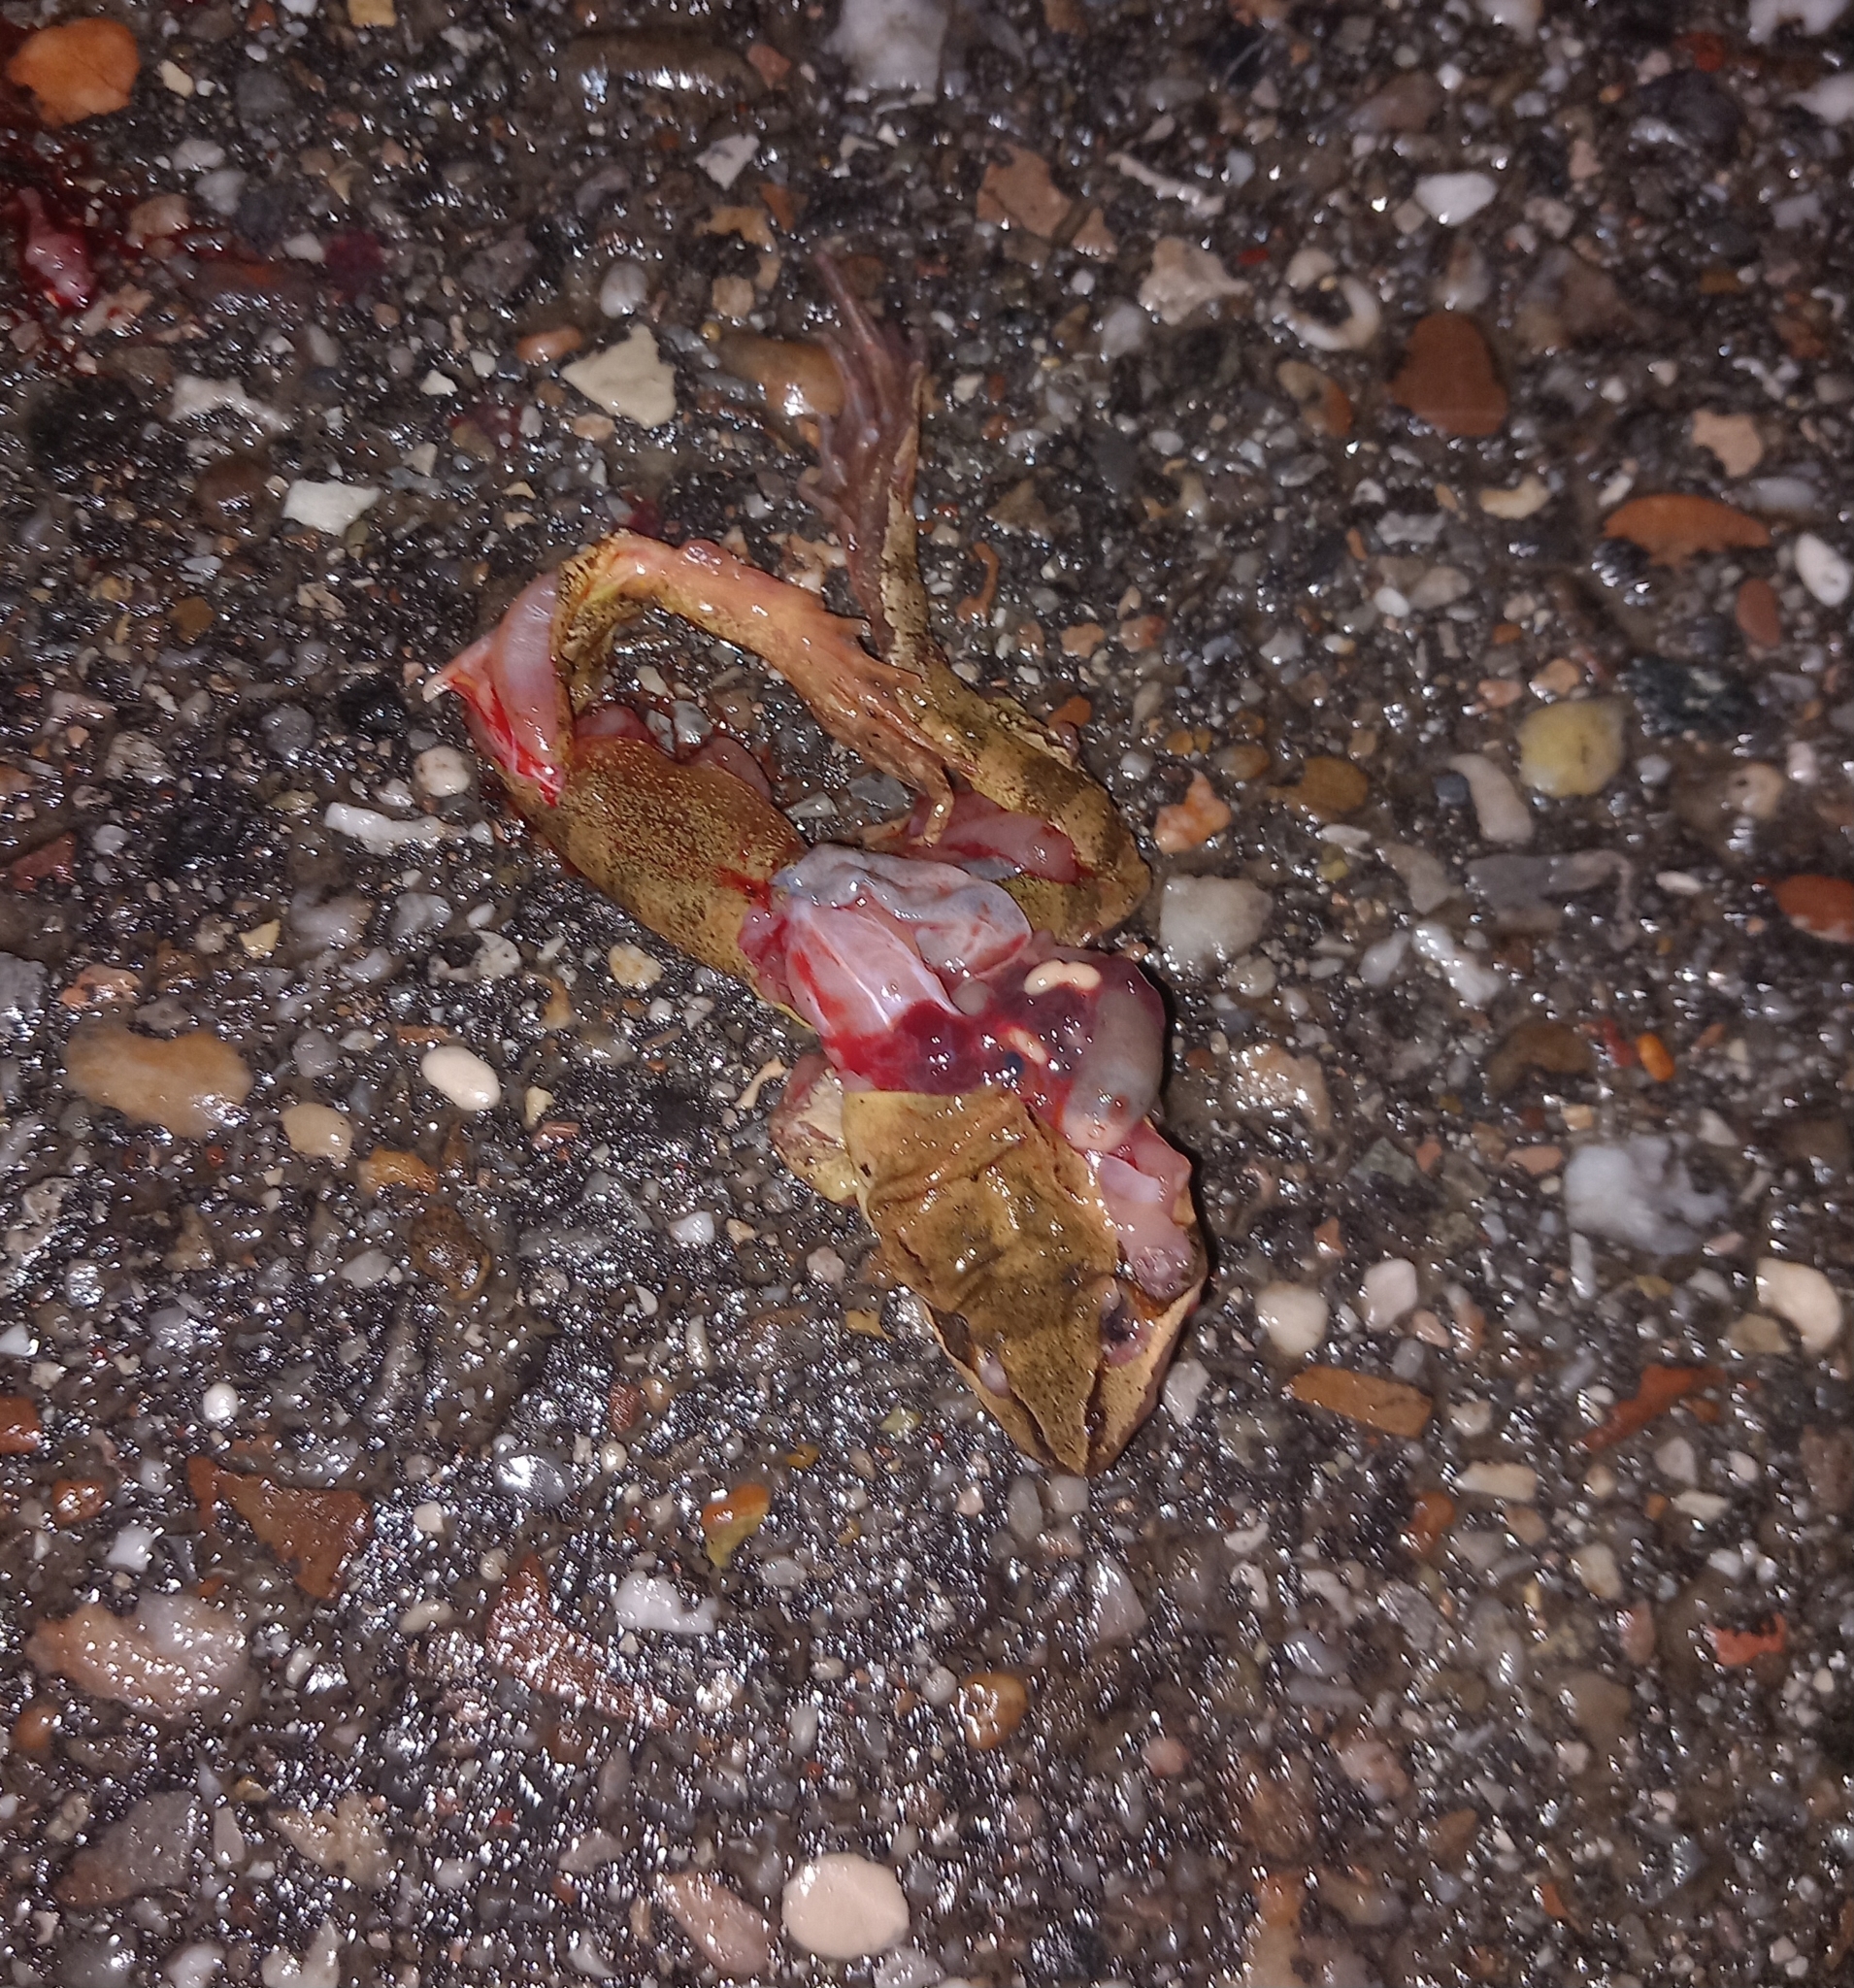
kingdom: Animalia
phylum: Chordata
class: Amphibia
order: Anura
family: Ranidae
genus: Rana
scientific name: Rana dalmatina
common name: Agile frog
